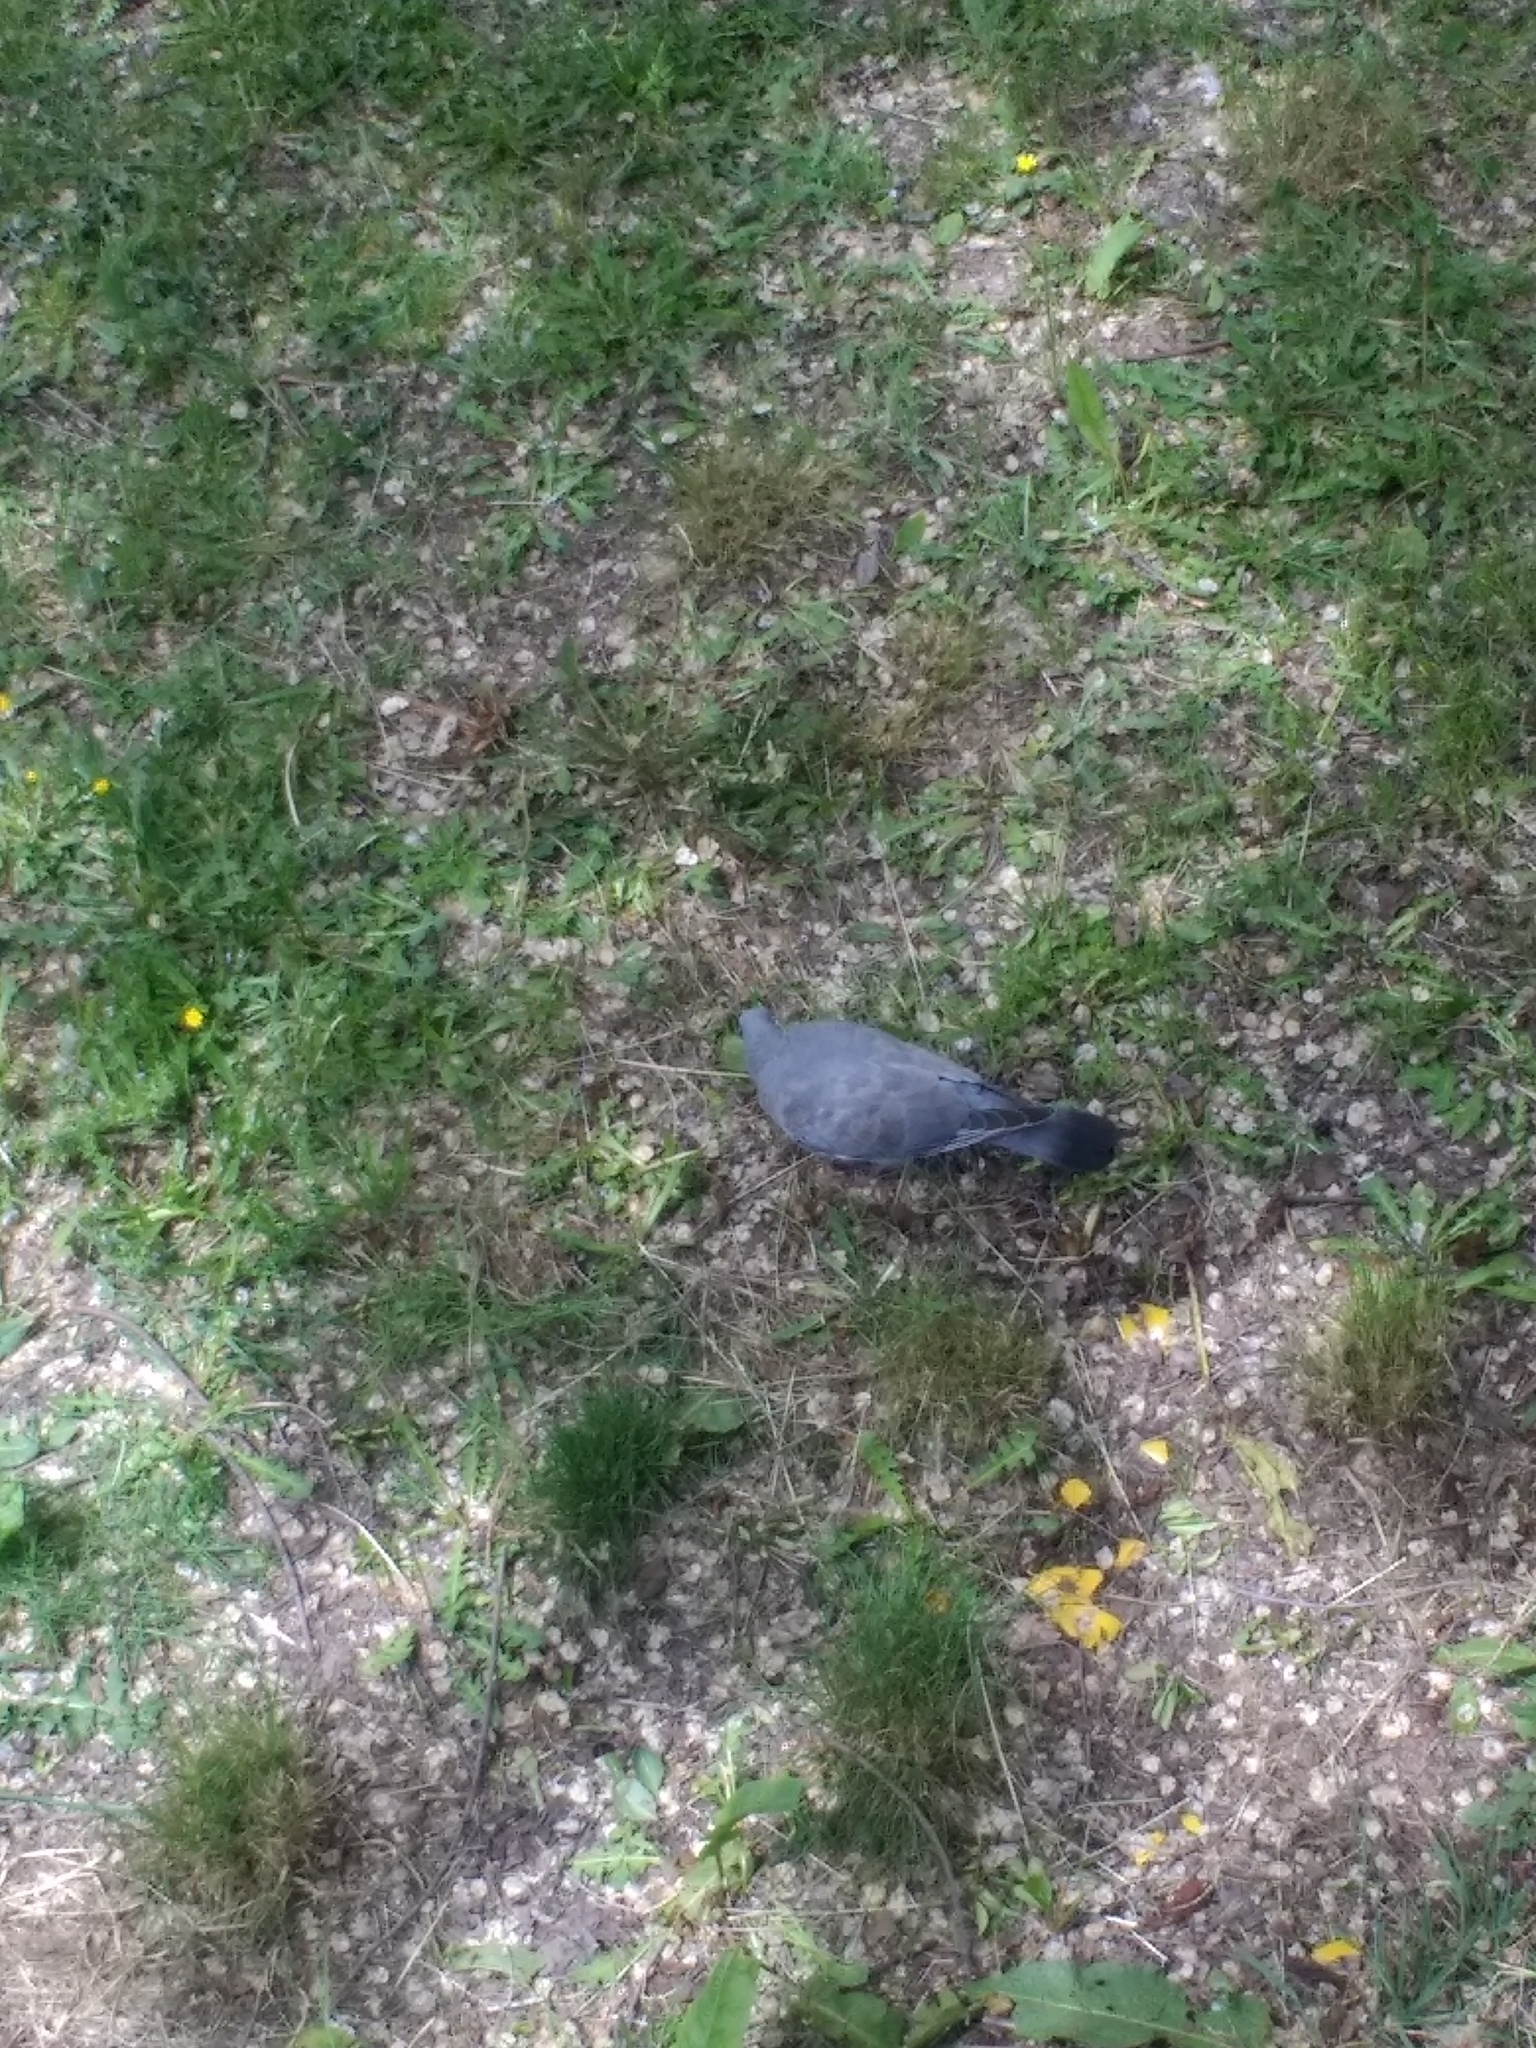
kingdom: Animalia
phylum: Chordata
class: Aves
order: Columbiformes
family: Columbidae
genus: Columba
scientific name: Columba palumbus
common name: Common wood pigeon
